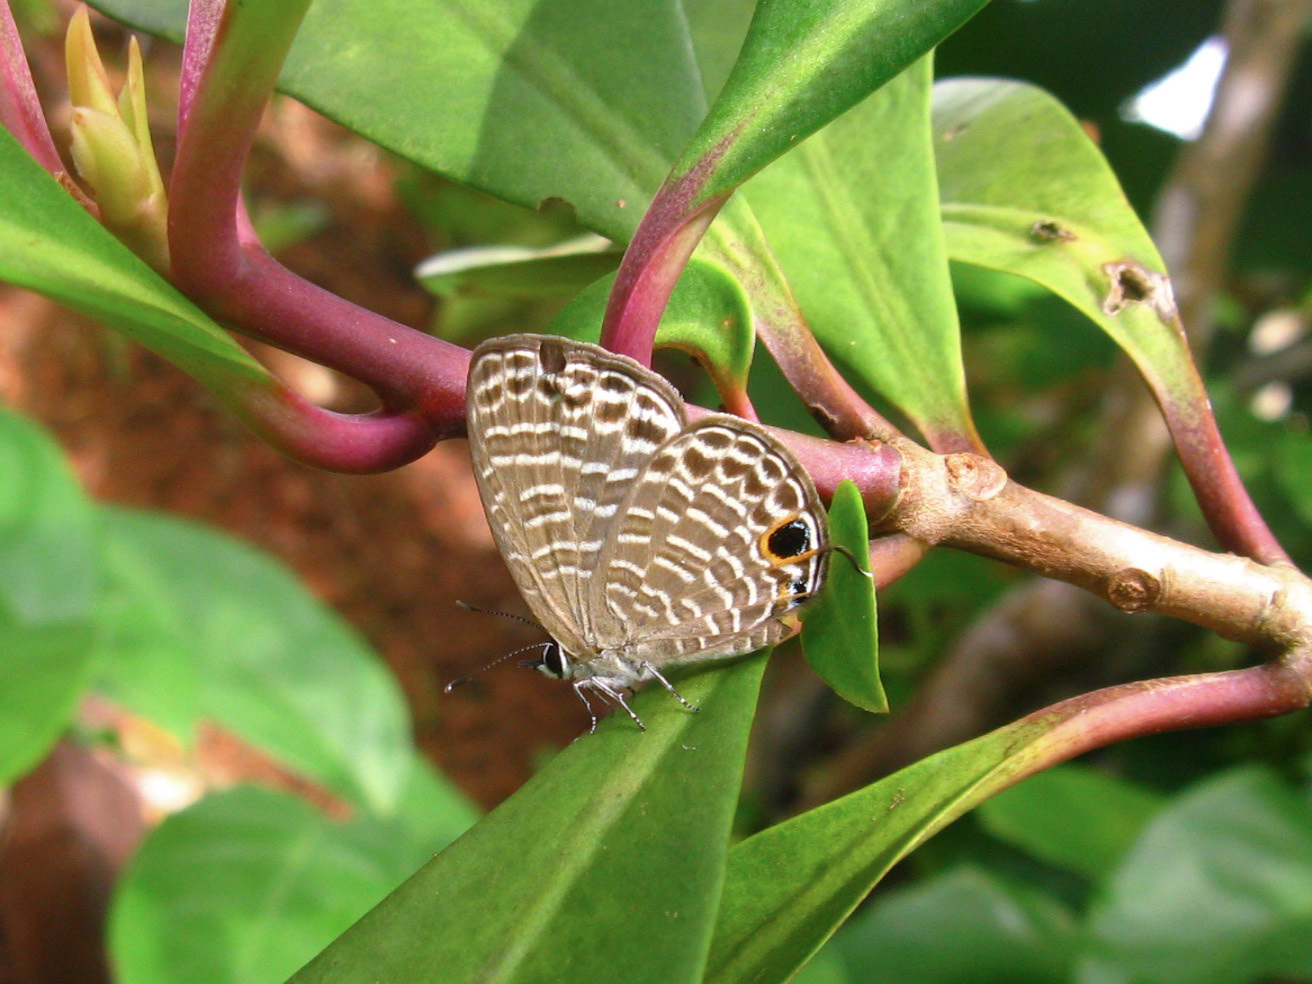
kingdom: Animalia
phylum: Arthropoda
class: Insecta
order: Lepidoptera
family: Lycaenidae
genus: Nacaduba
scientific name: Nacaduba kurava
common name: Transparent 6-line blue
